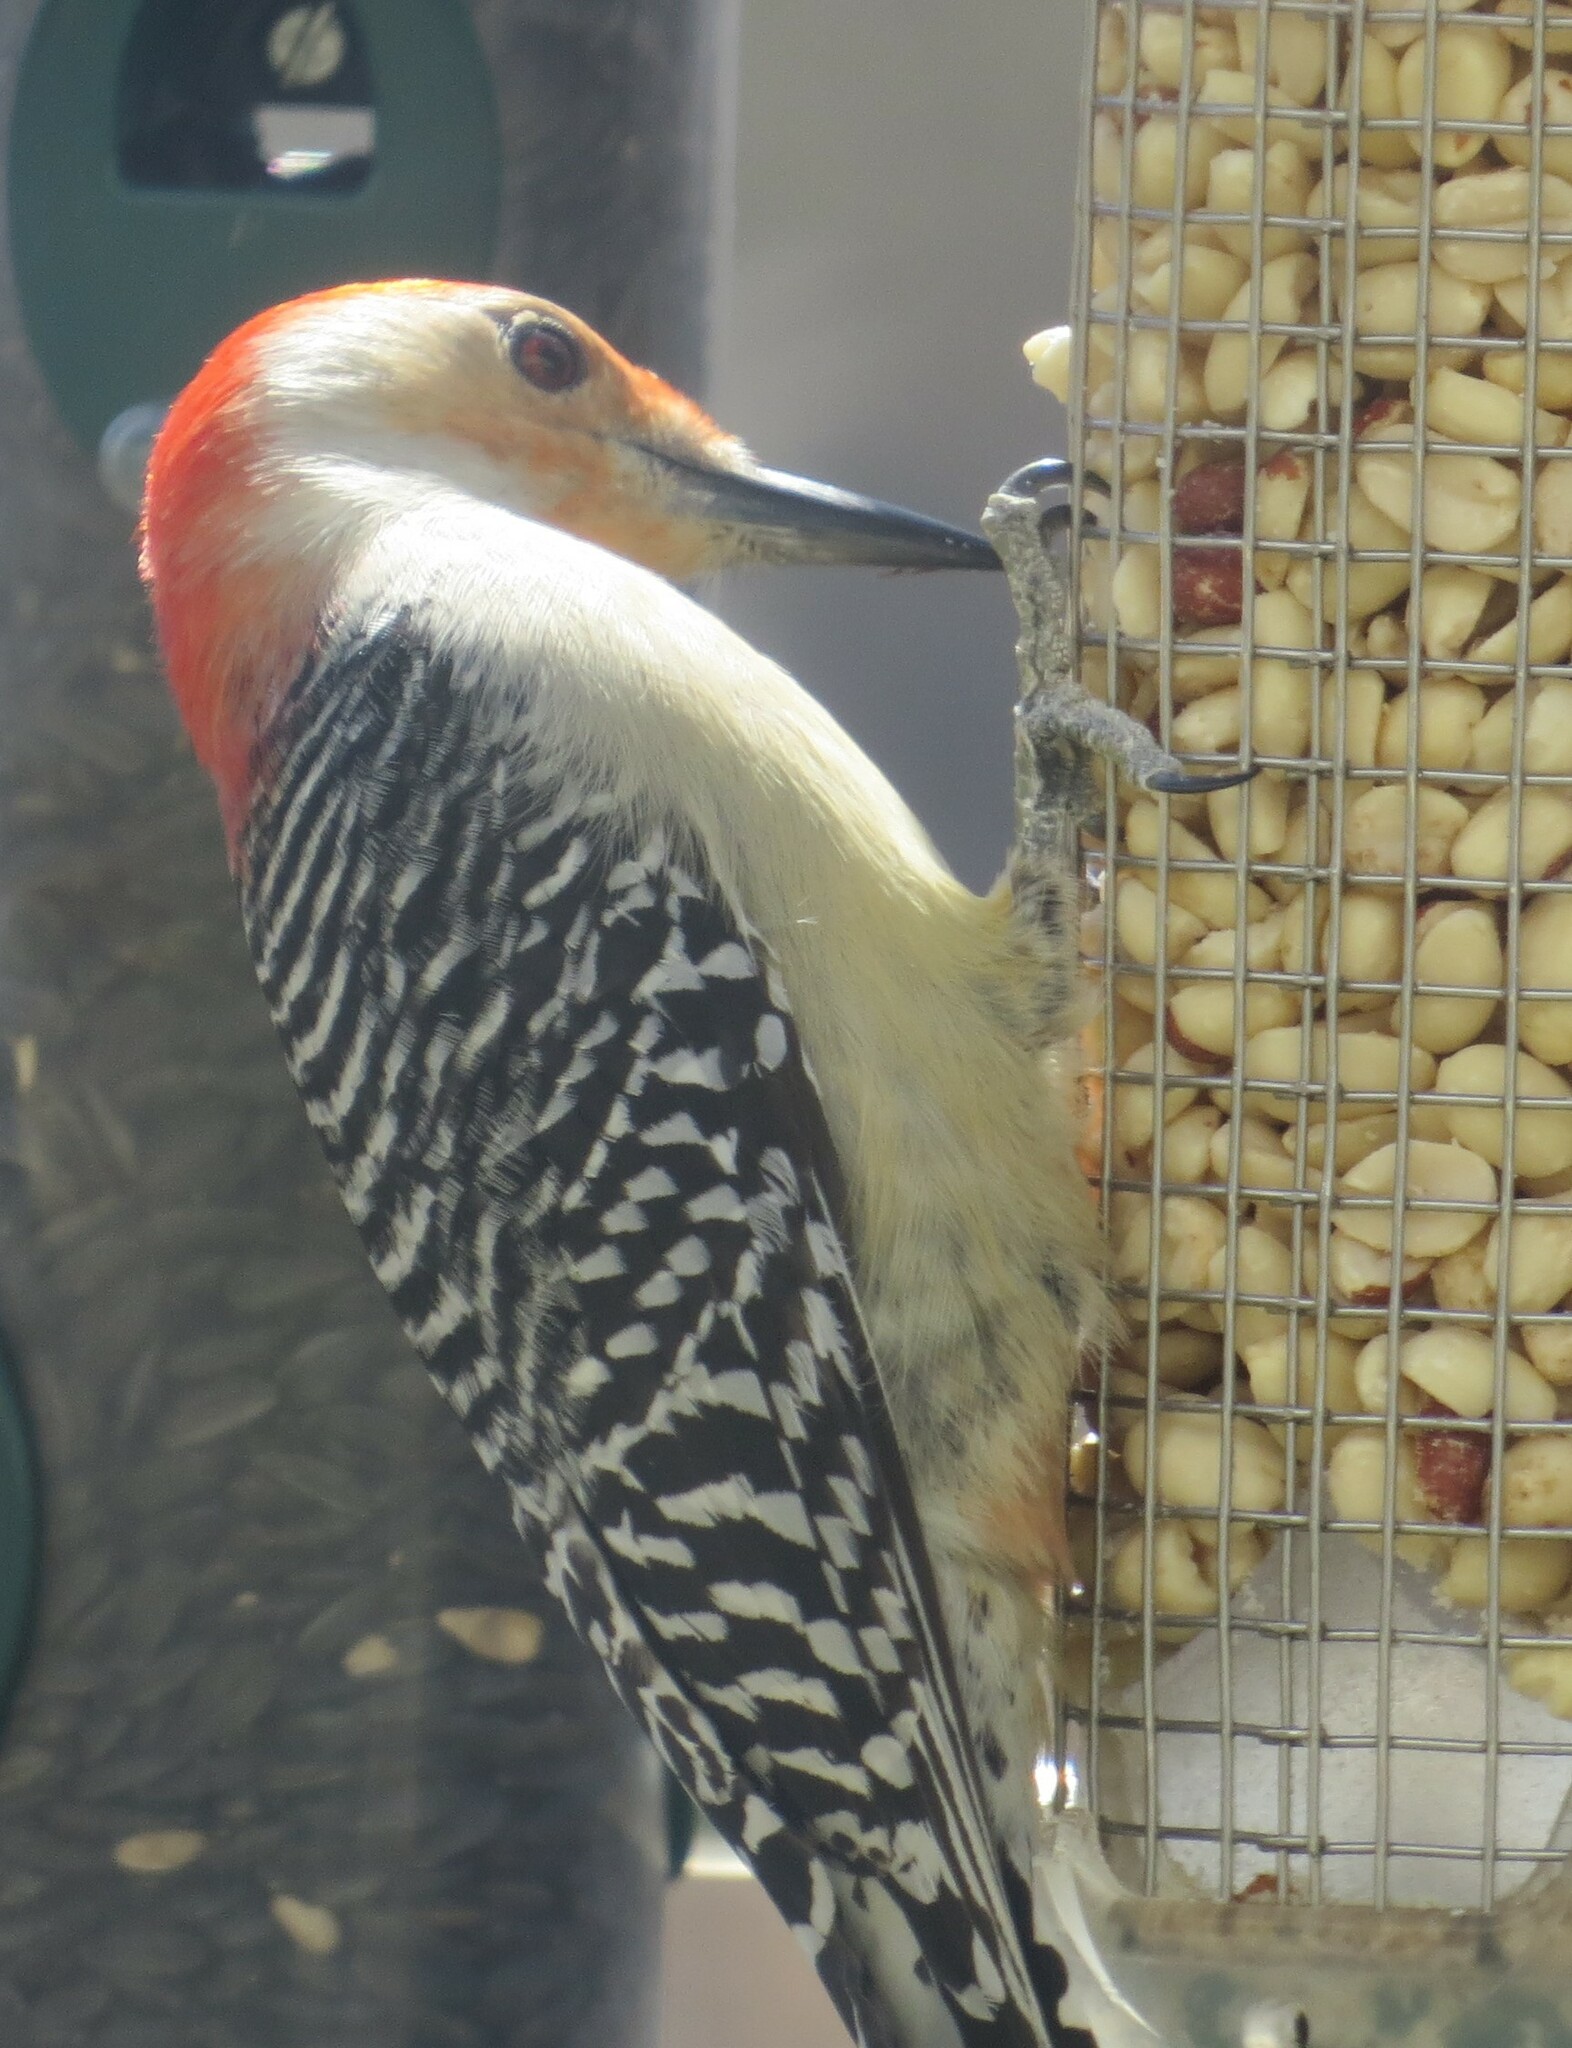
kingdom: Animalia
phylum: Chordata
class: Aves
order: Piciformes
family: Picidae
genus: Melanerpes
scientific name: Melanerpes carolinus
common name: Red-bellied woodpecker
